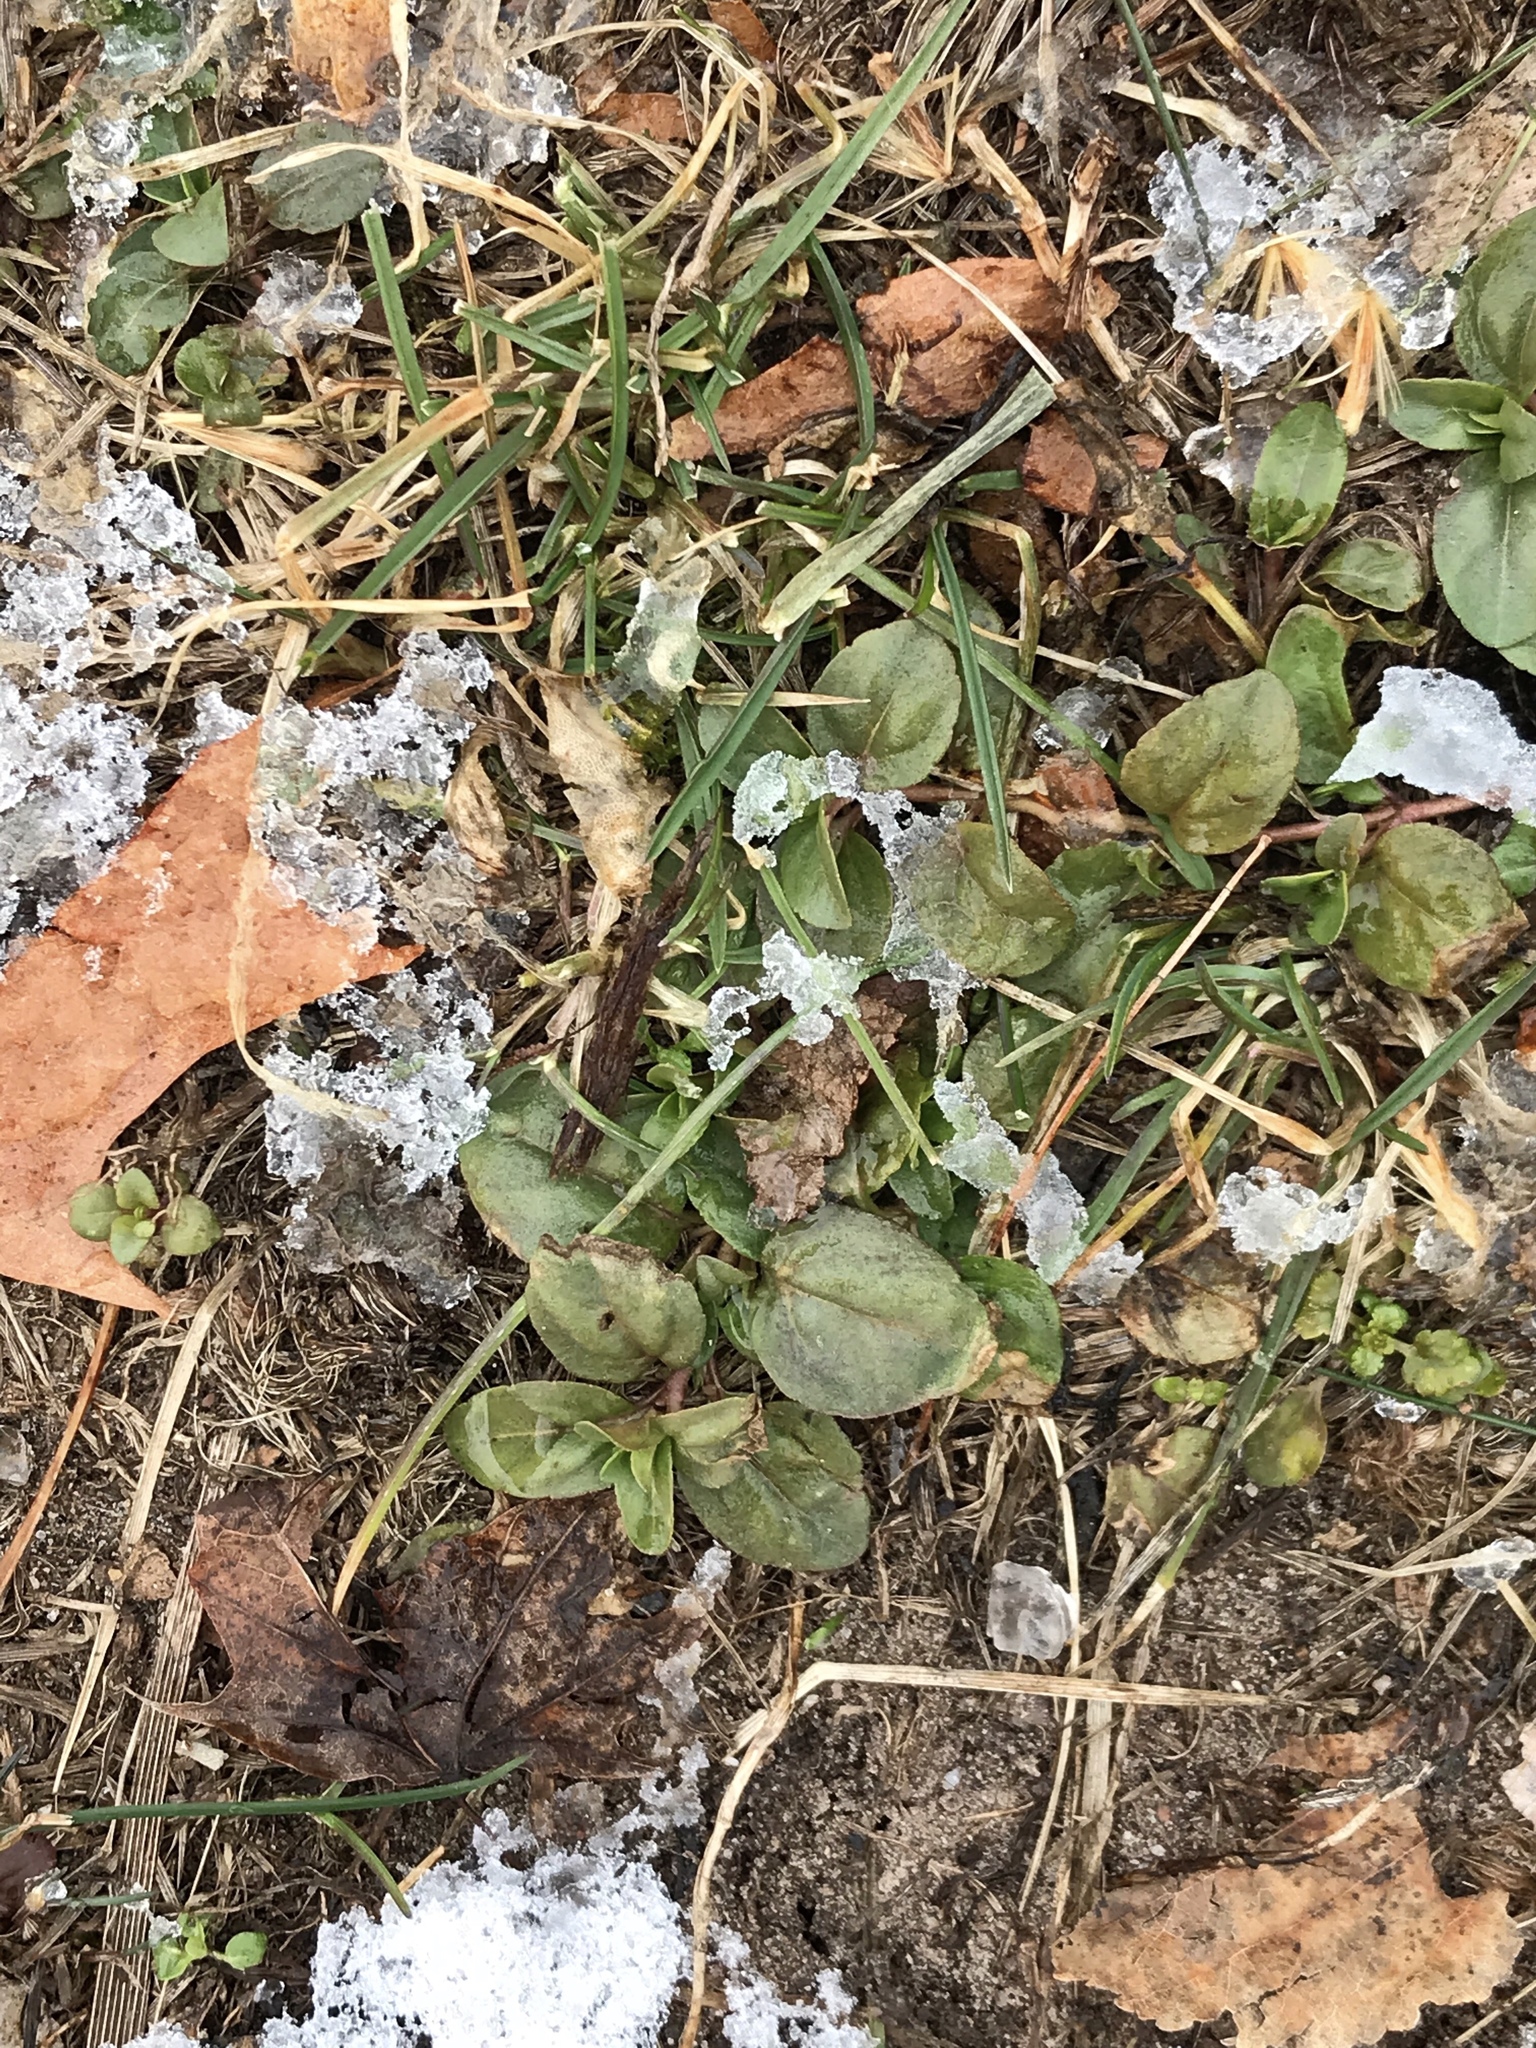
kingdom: Plantae
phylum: Tracheophyta
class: Magnoliopsida
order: Lamiales
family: Plantaginaceae
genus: Veronica
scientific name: Veronica serpyllifolia
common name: Thyme-leaved speedwell
